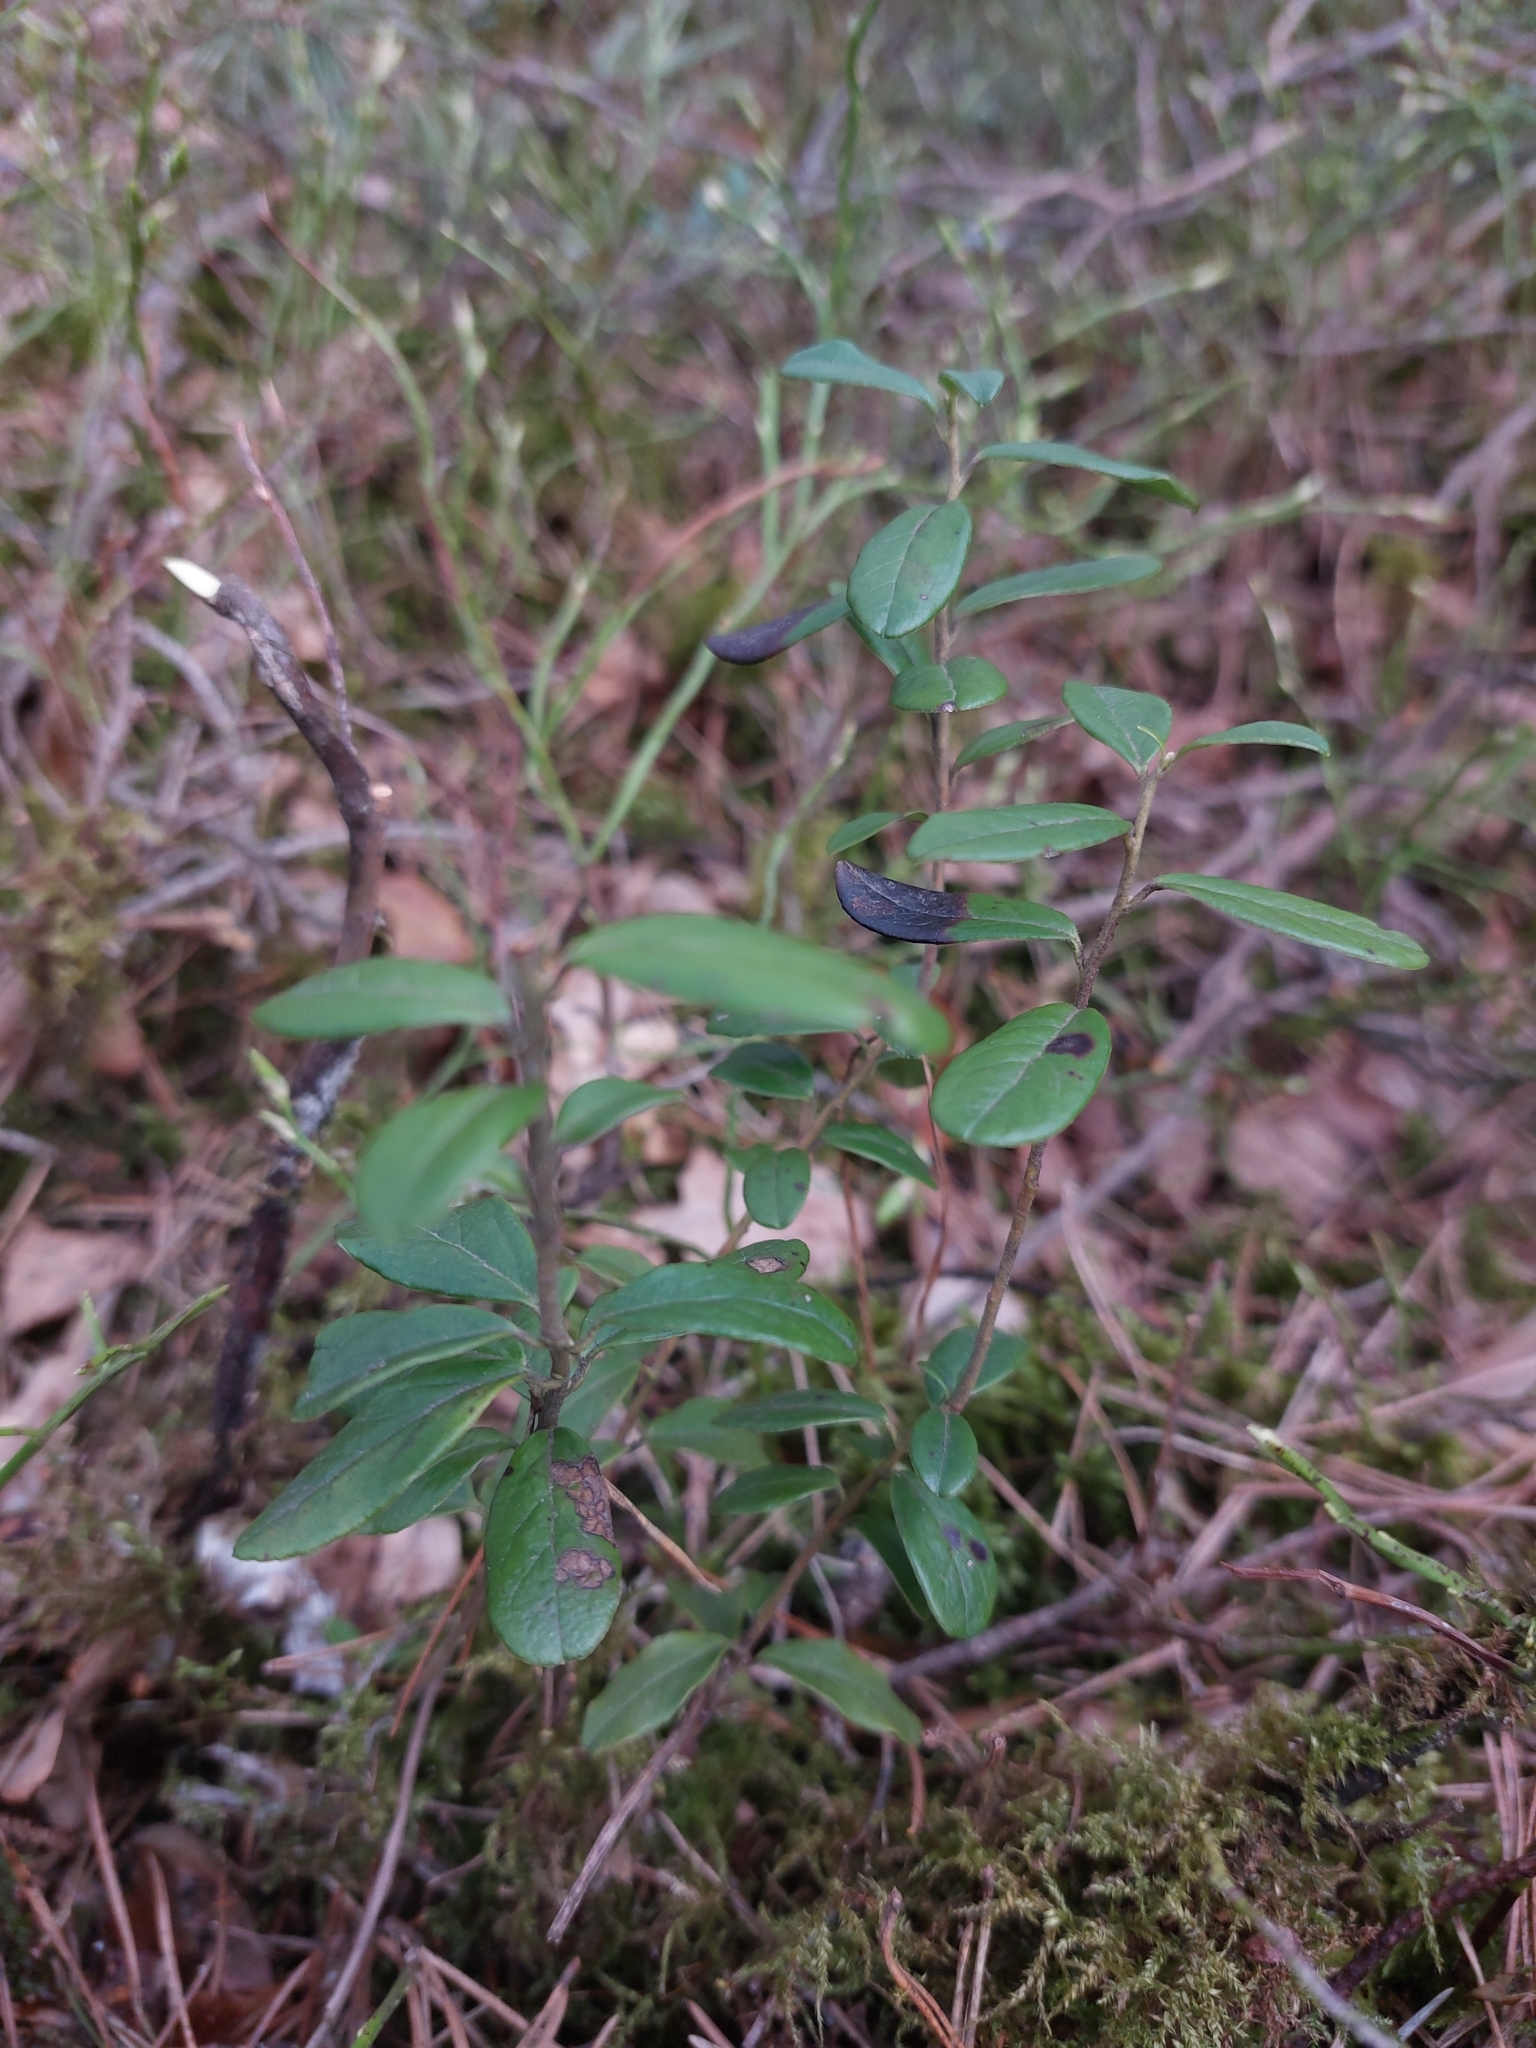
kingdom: Plantae
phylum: Tracheophyta
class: Magnoliopsida
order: Ericales
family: Ericaceae
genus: Vaccinium
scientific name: Vaccinium vitis-idaea
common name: Cowberry
